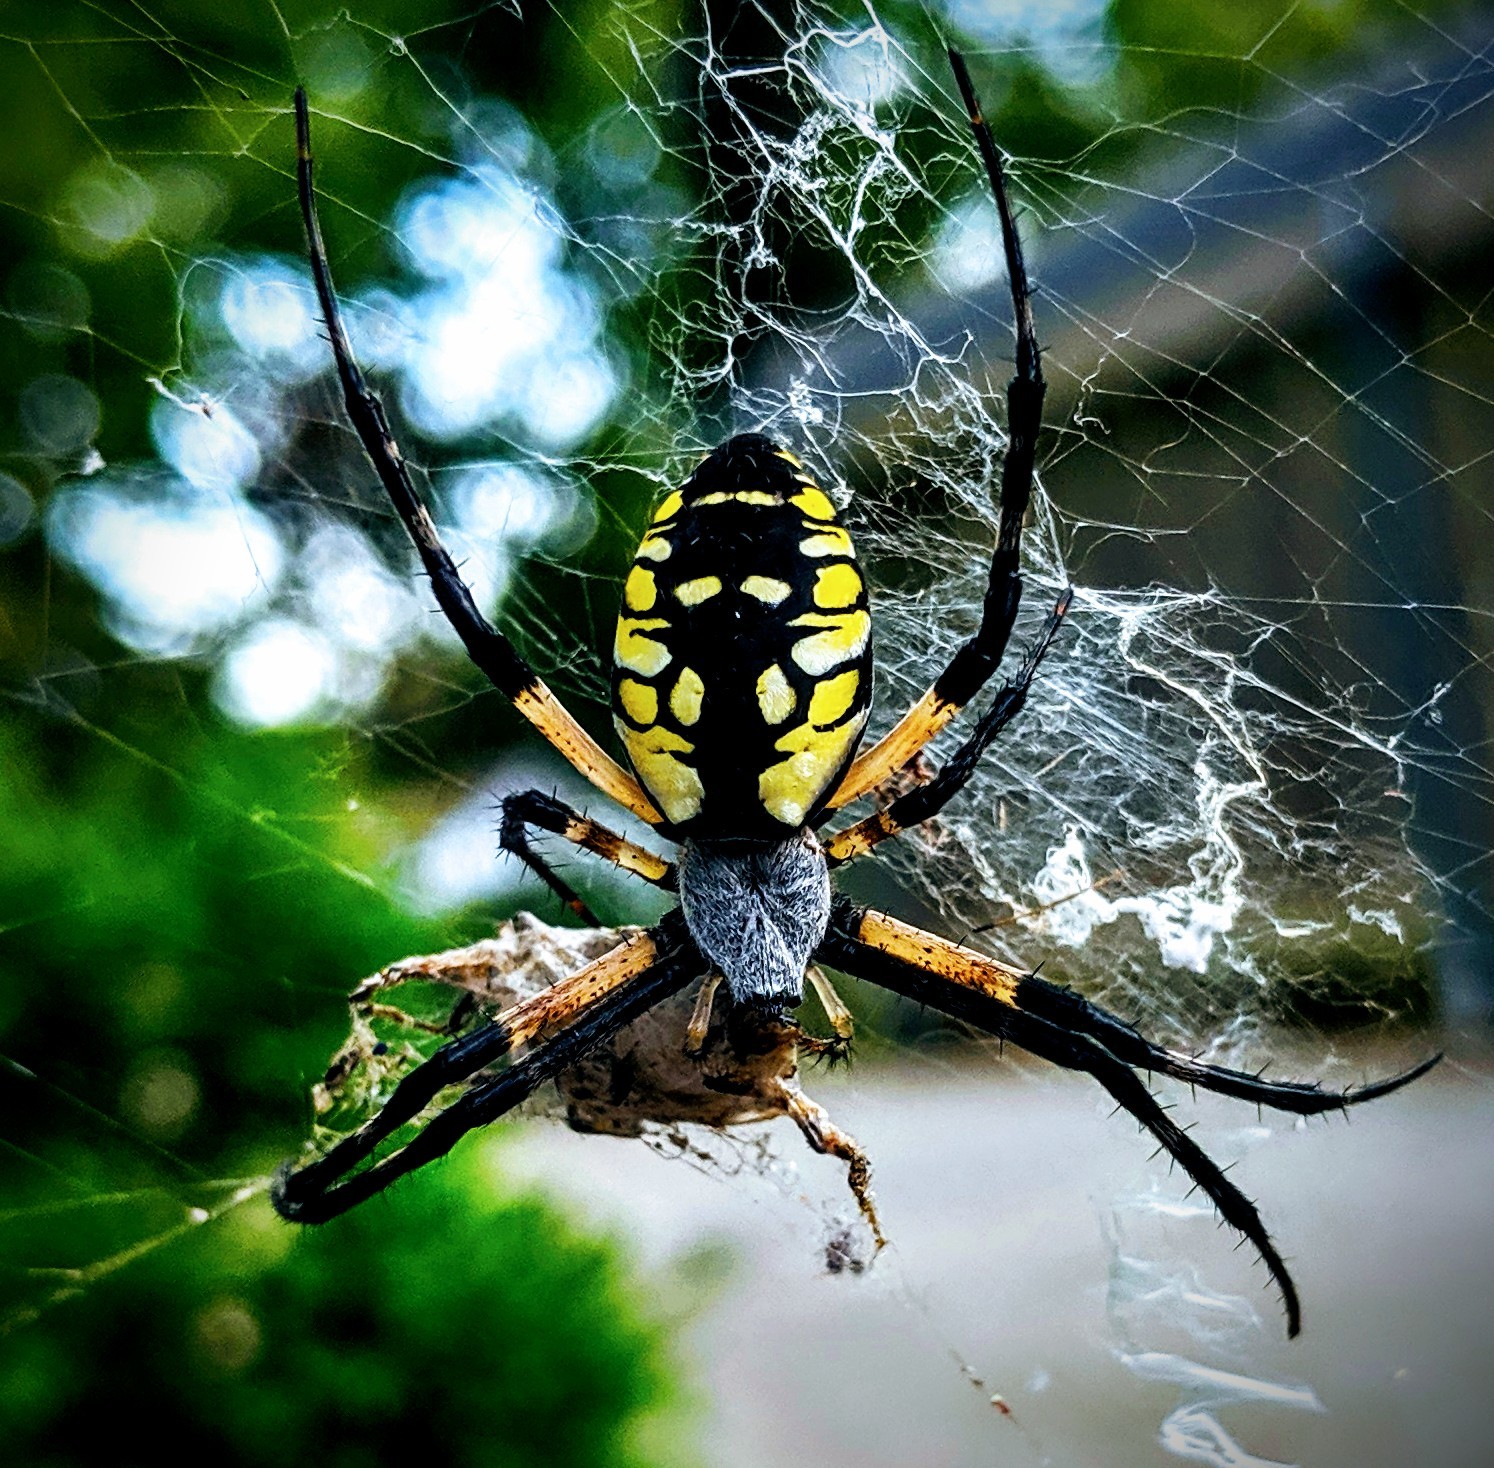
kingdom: Animalia
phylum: Arthropoda
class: Arachnida
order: Araneae
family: Araneidae
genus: Argiope
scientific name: Argiope aurantia
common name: Orb weavers
